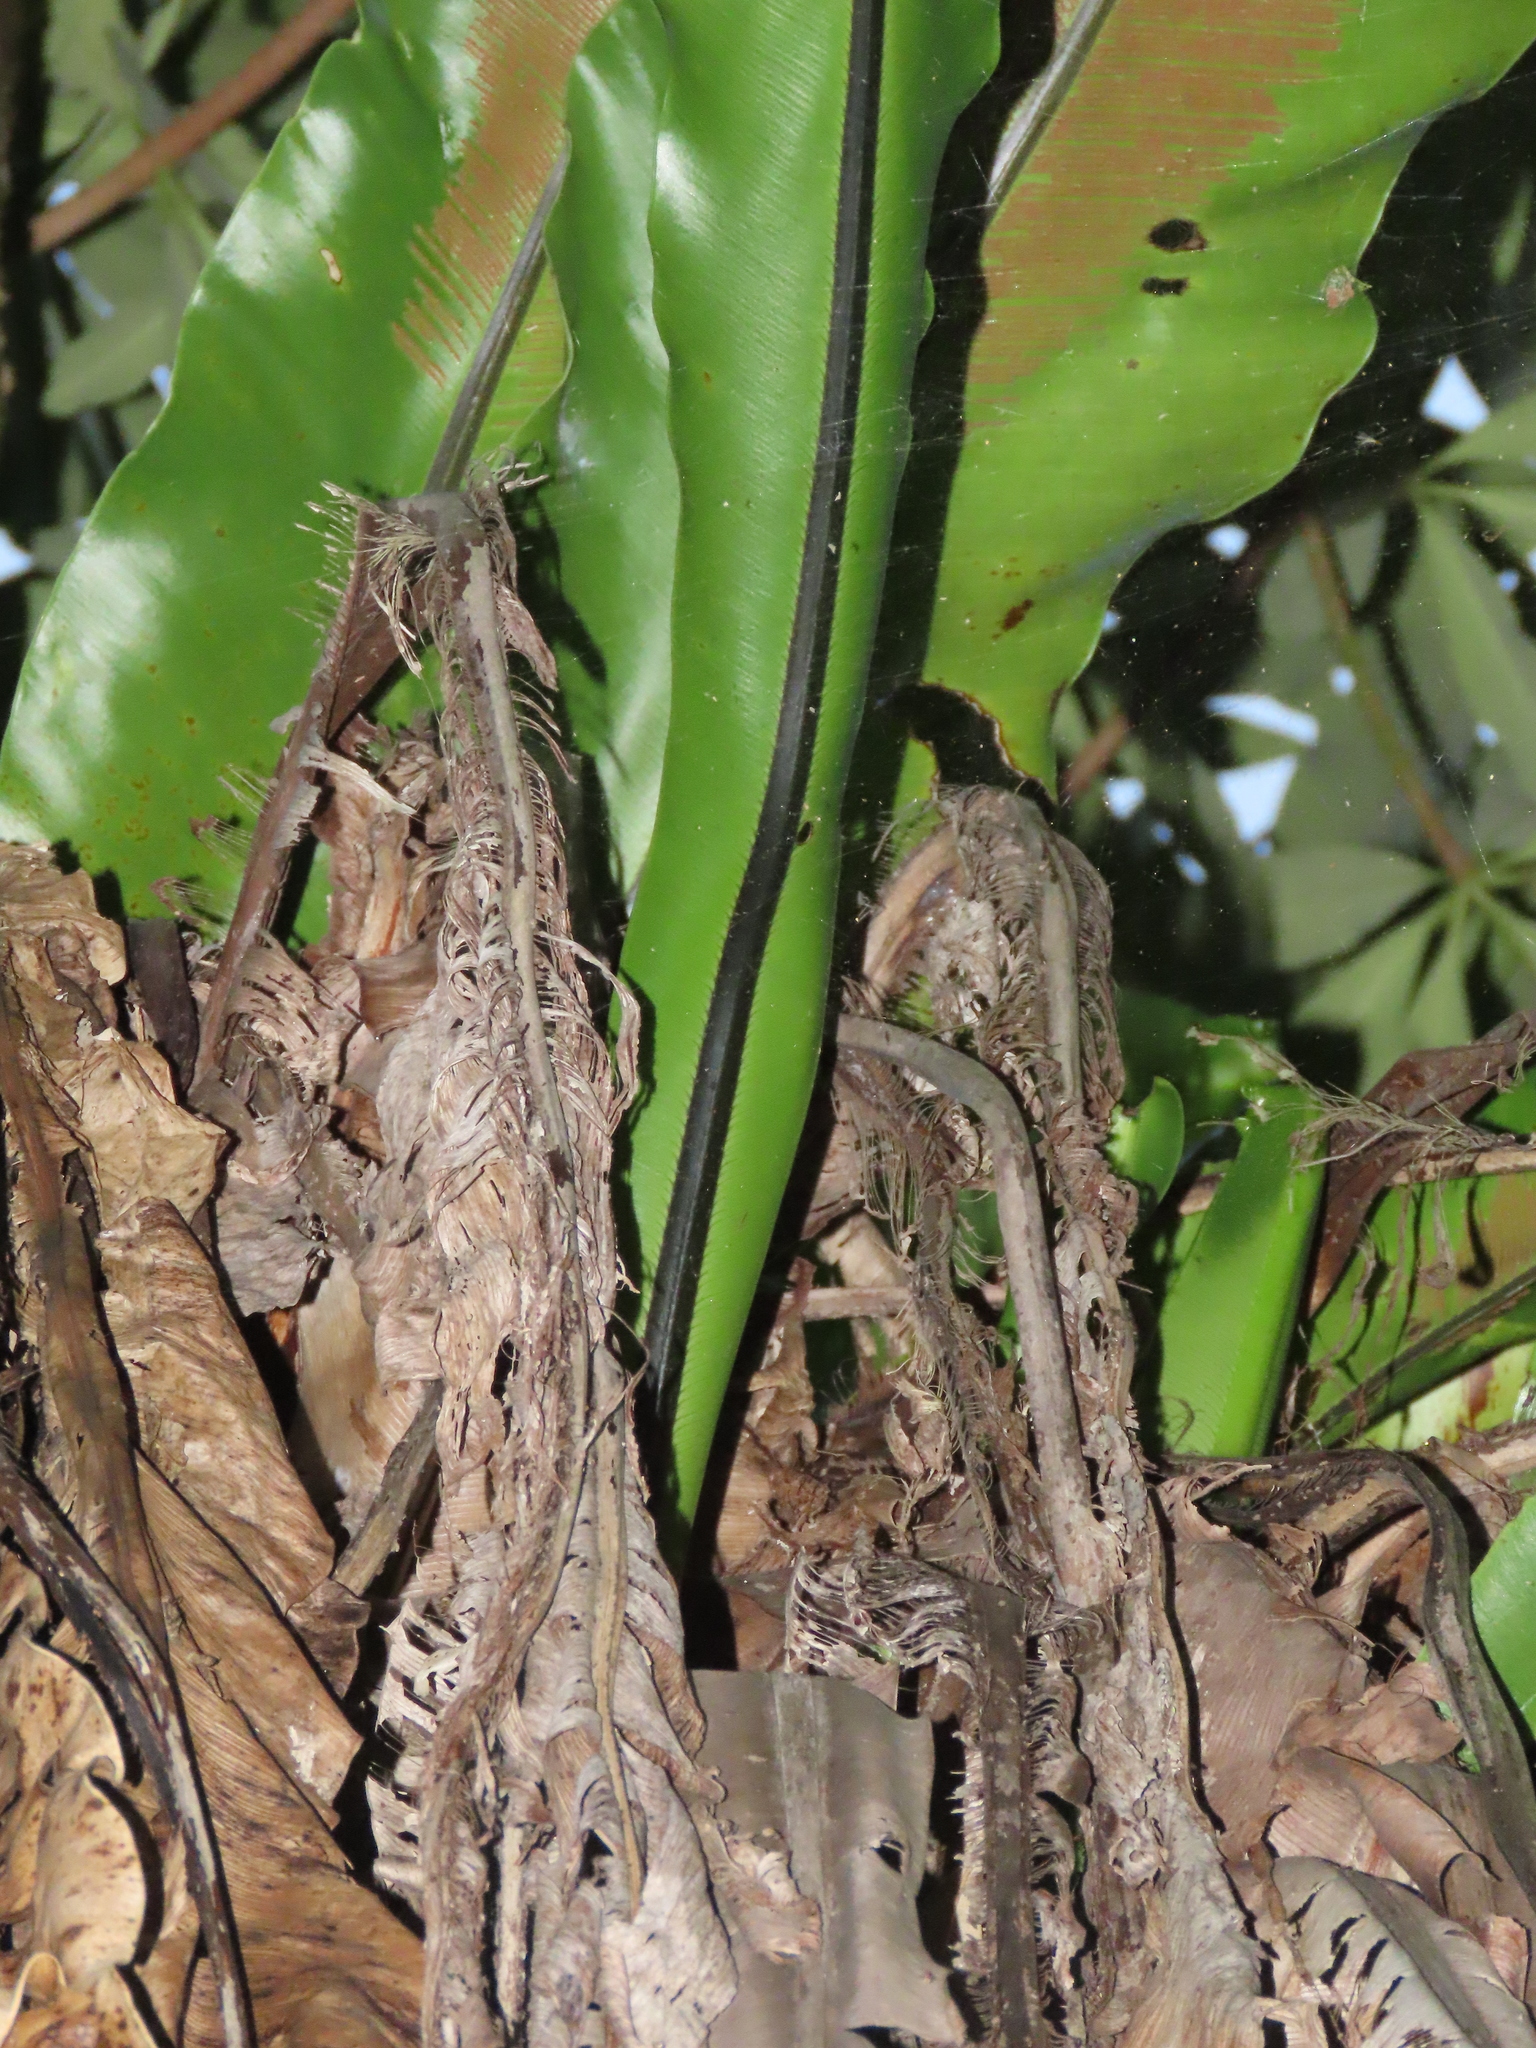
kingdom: Plantae
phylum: Tracheophyta
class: Polypodiopsida
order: Polypodiales
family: Aspleniaceae
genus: Asplenium
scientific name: Asplenium setoi
